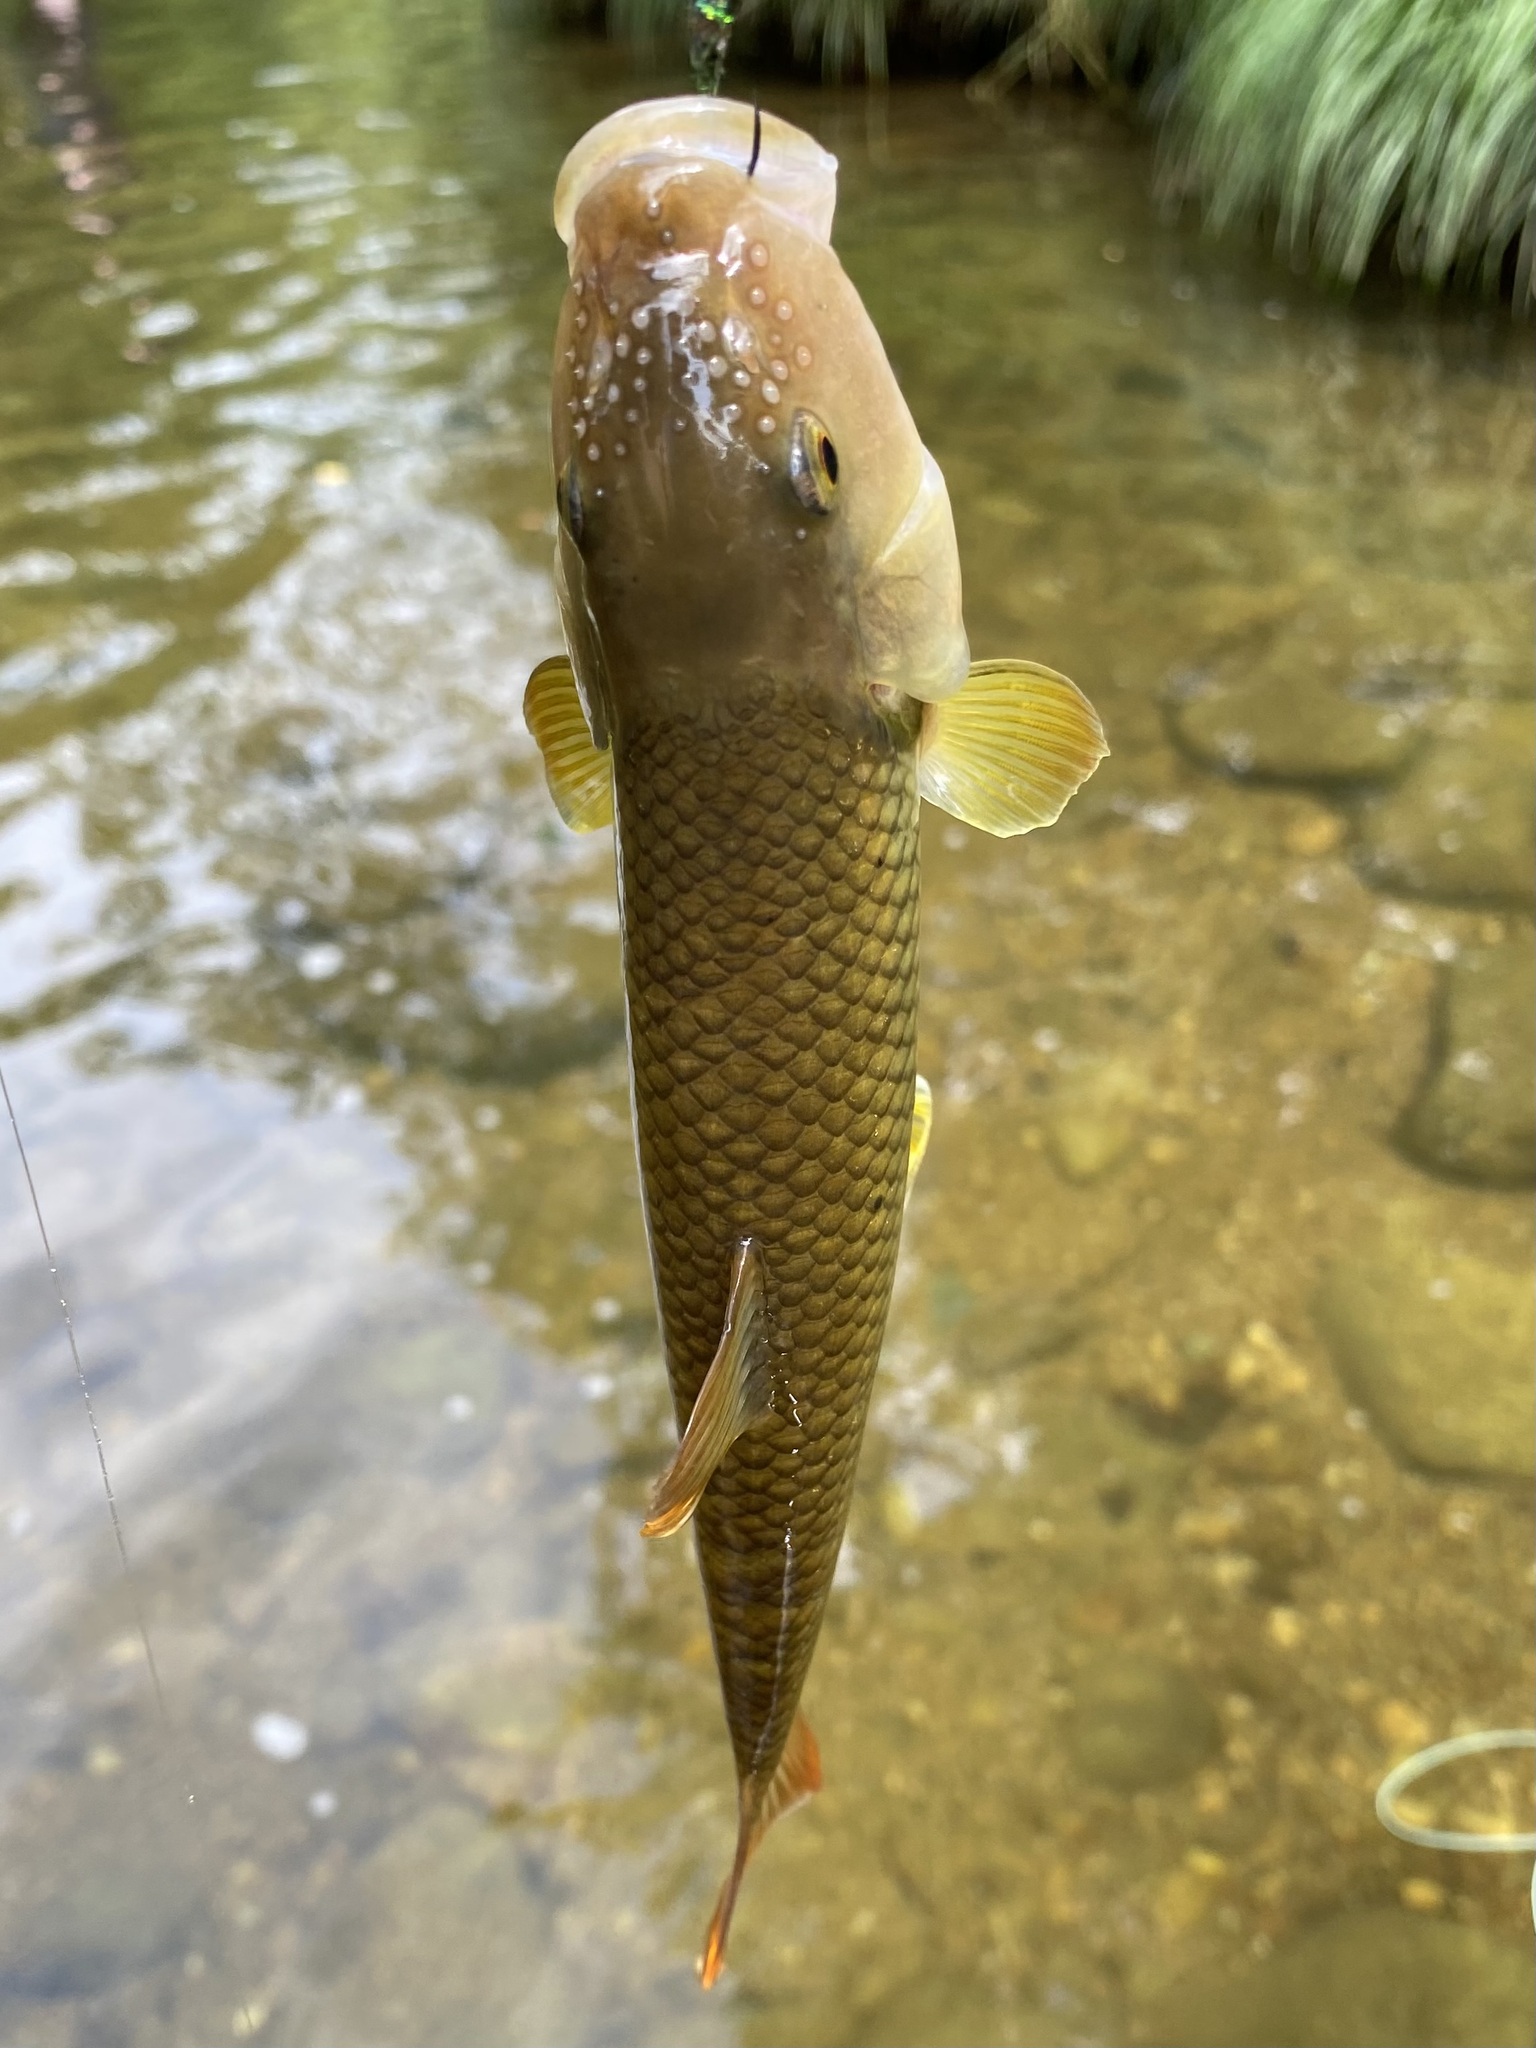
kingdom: Animalia
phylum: Chordata
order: Cypriniformes
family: Cyprinidae
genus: Nocomis
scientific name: Nocomis micropogon
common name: River chub
